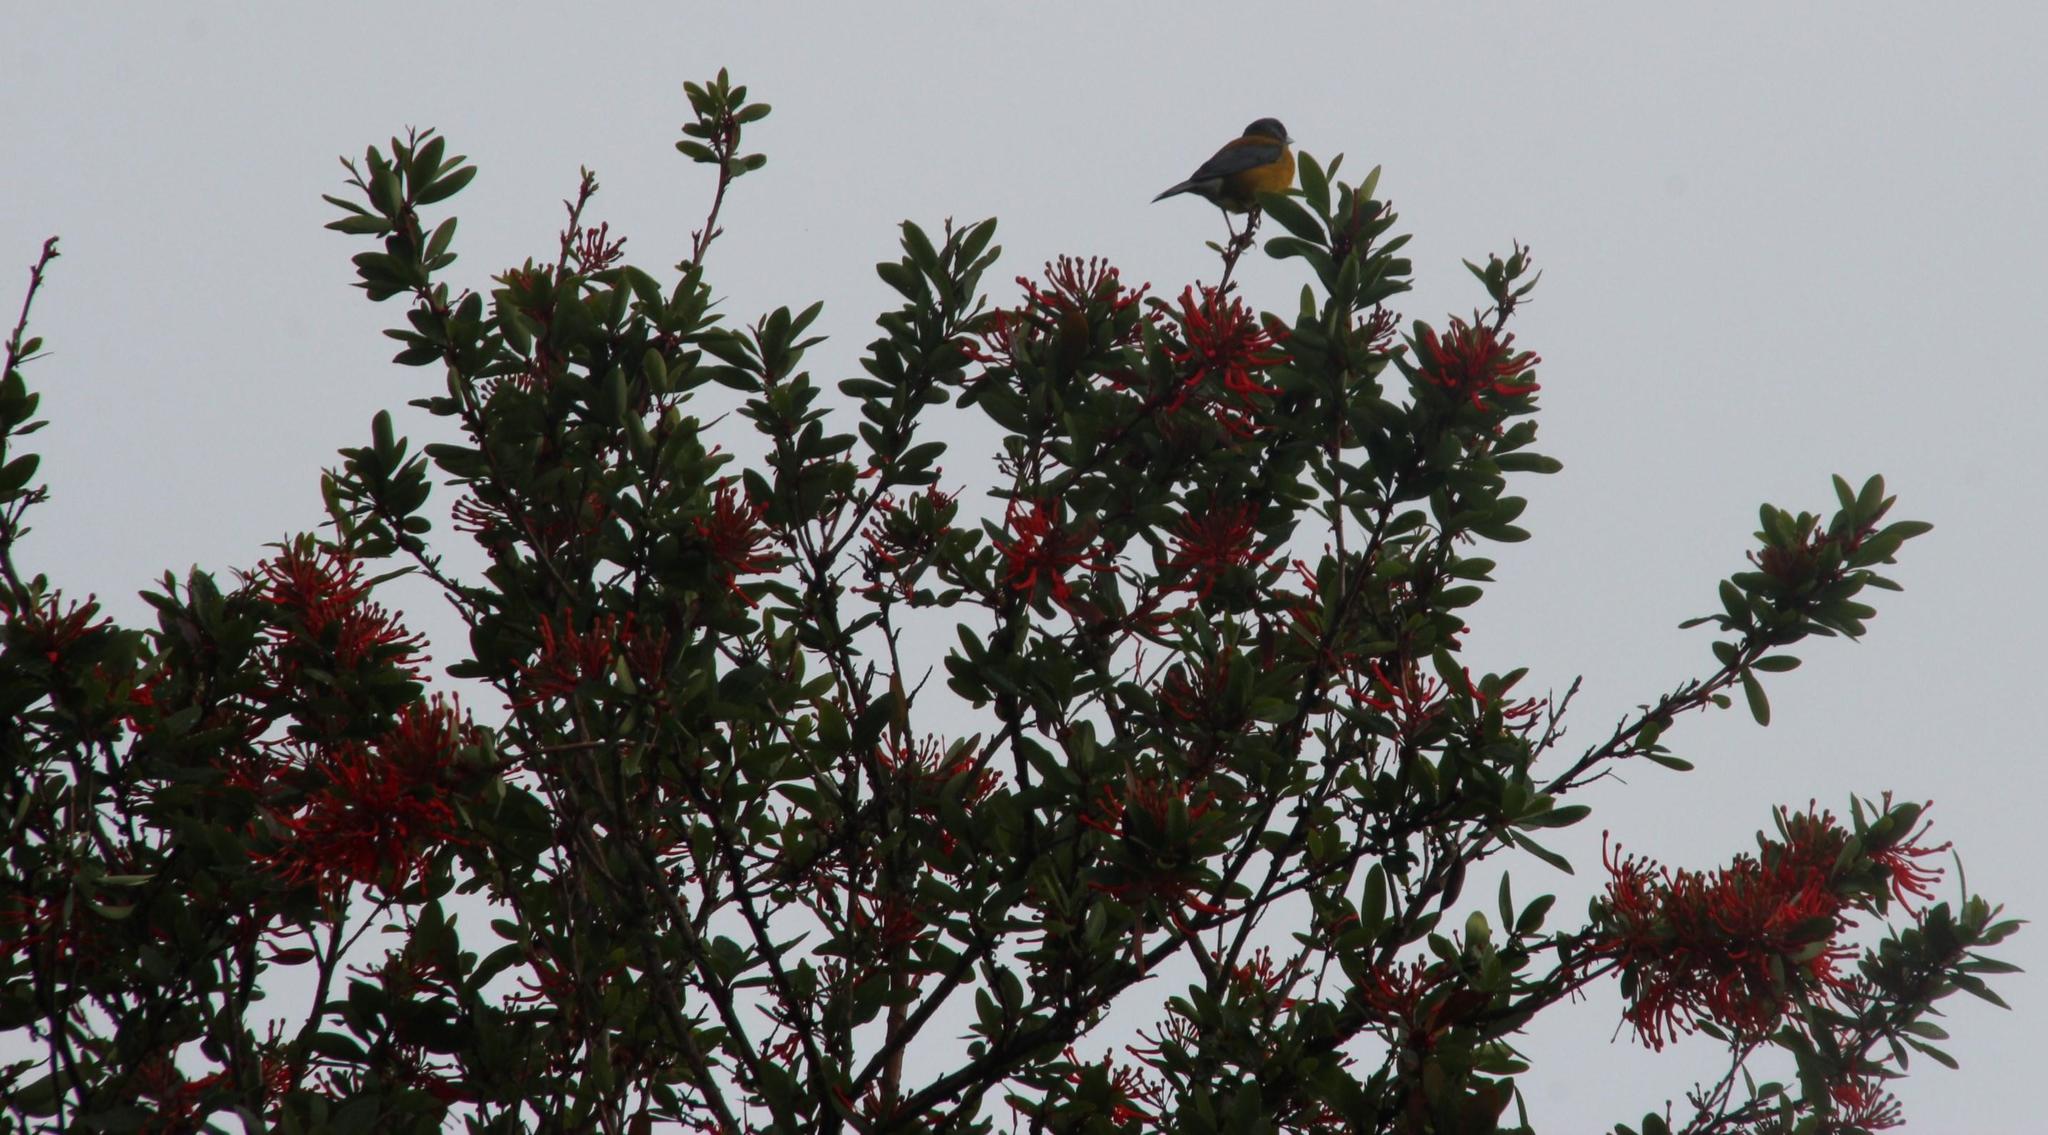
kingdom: Plantae
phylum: Tracheophyta
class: Magnoliopsida
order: Proteales
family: Proteaceae
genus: Embothrium
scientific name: Embothrium coccineum
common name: Chilean firebush
